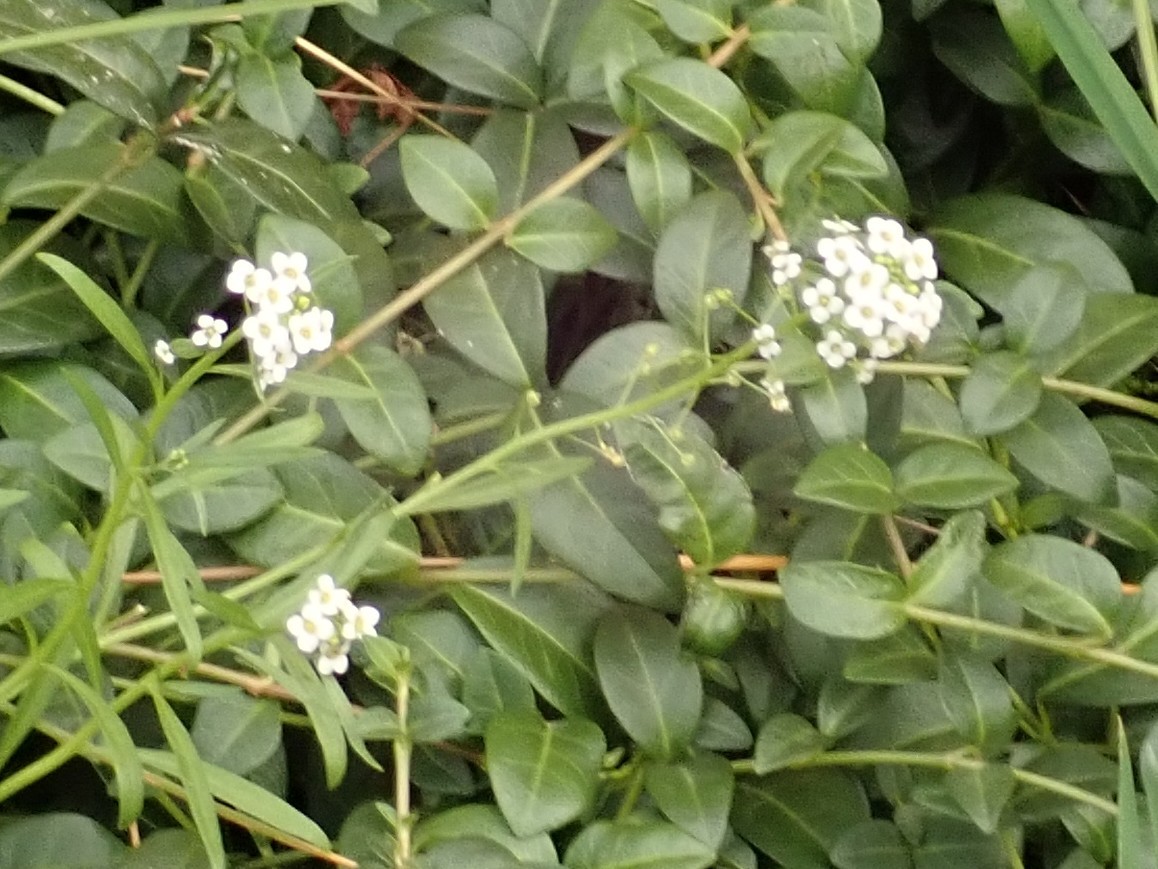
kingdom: Plantae
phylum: Tracheophyta
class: Magnoliopsida
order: Brassicales
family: Brassicaceae
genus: Lobularia
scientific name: Lobularia maritima
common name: Sweet alison
